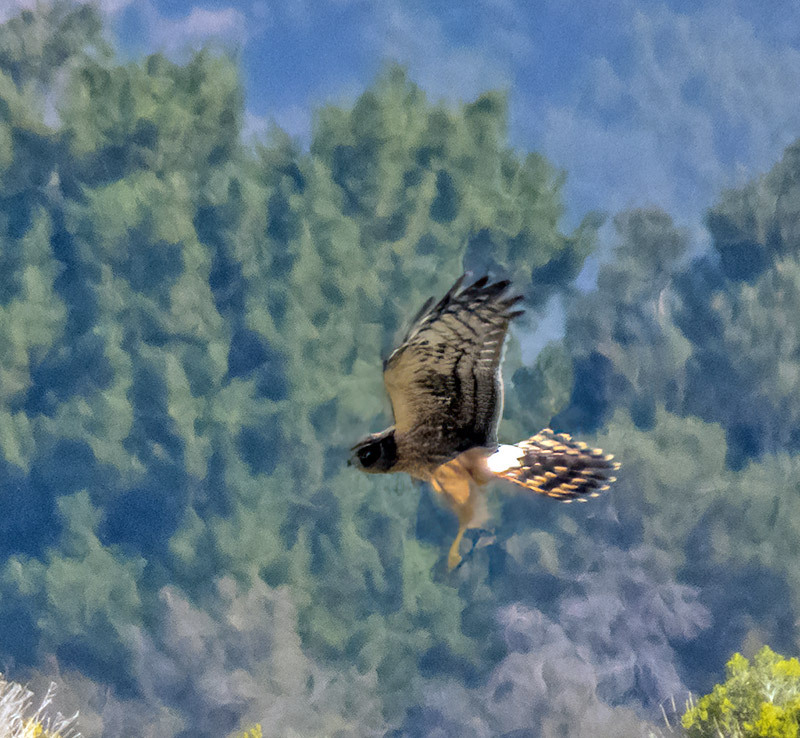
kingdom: Animalia
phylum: Chordata
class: Aves
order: Accipitriformes
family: Accipitridae
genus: Circus
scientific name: Circus cyaneus
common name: Hen harrier
